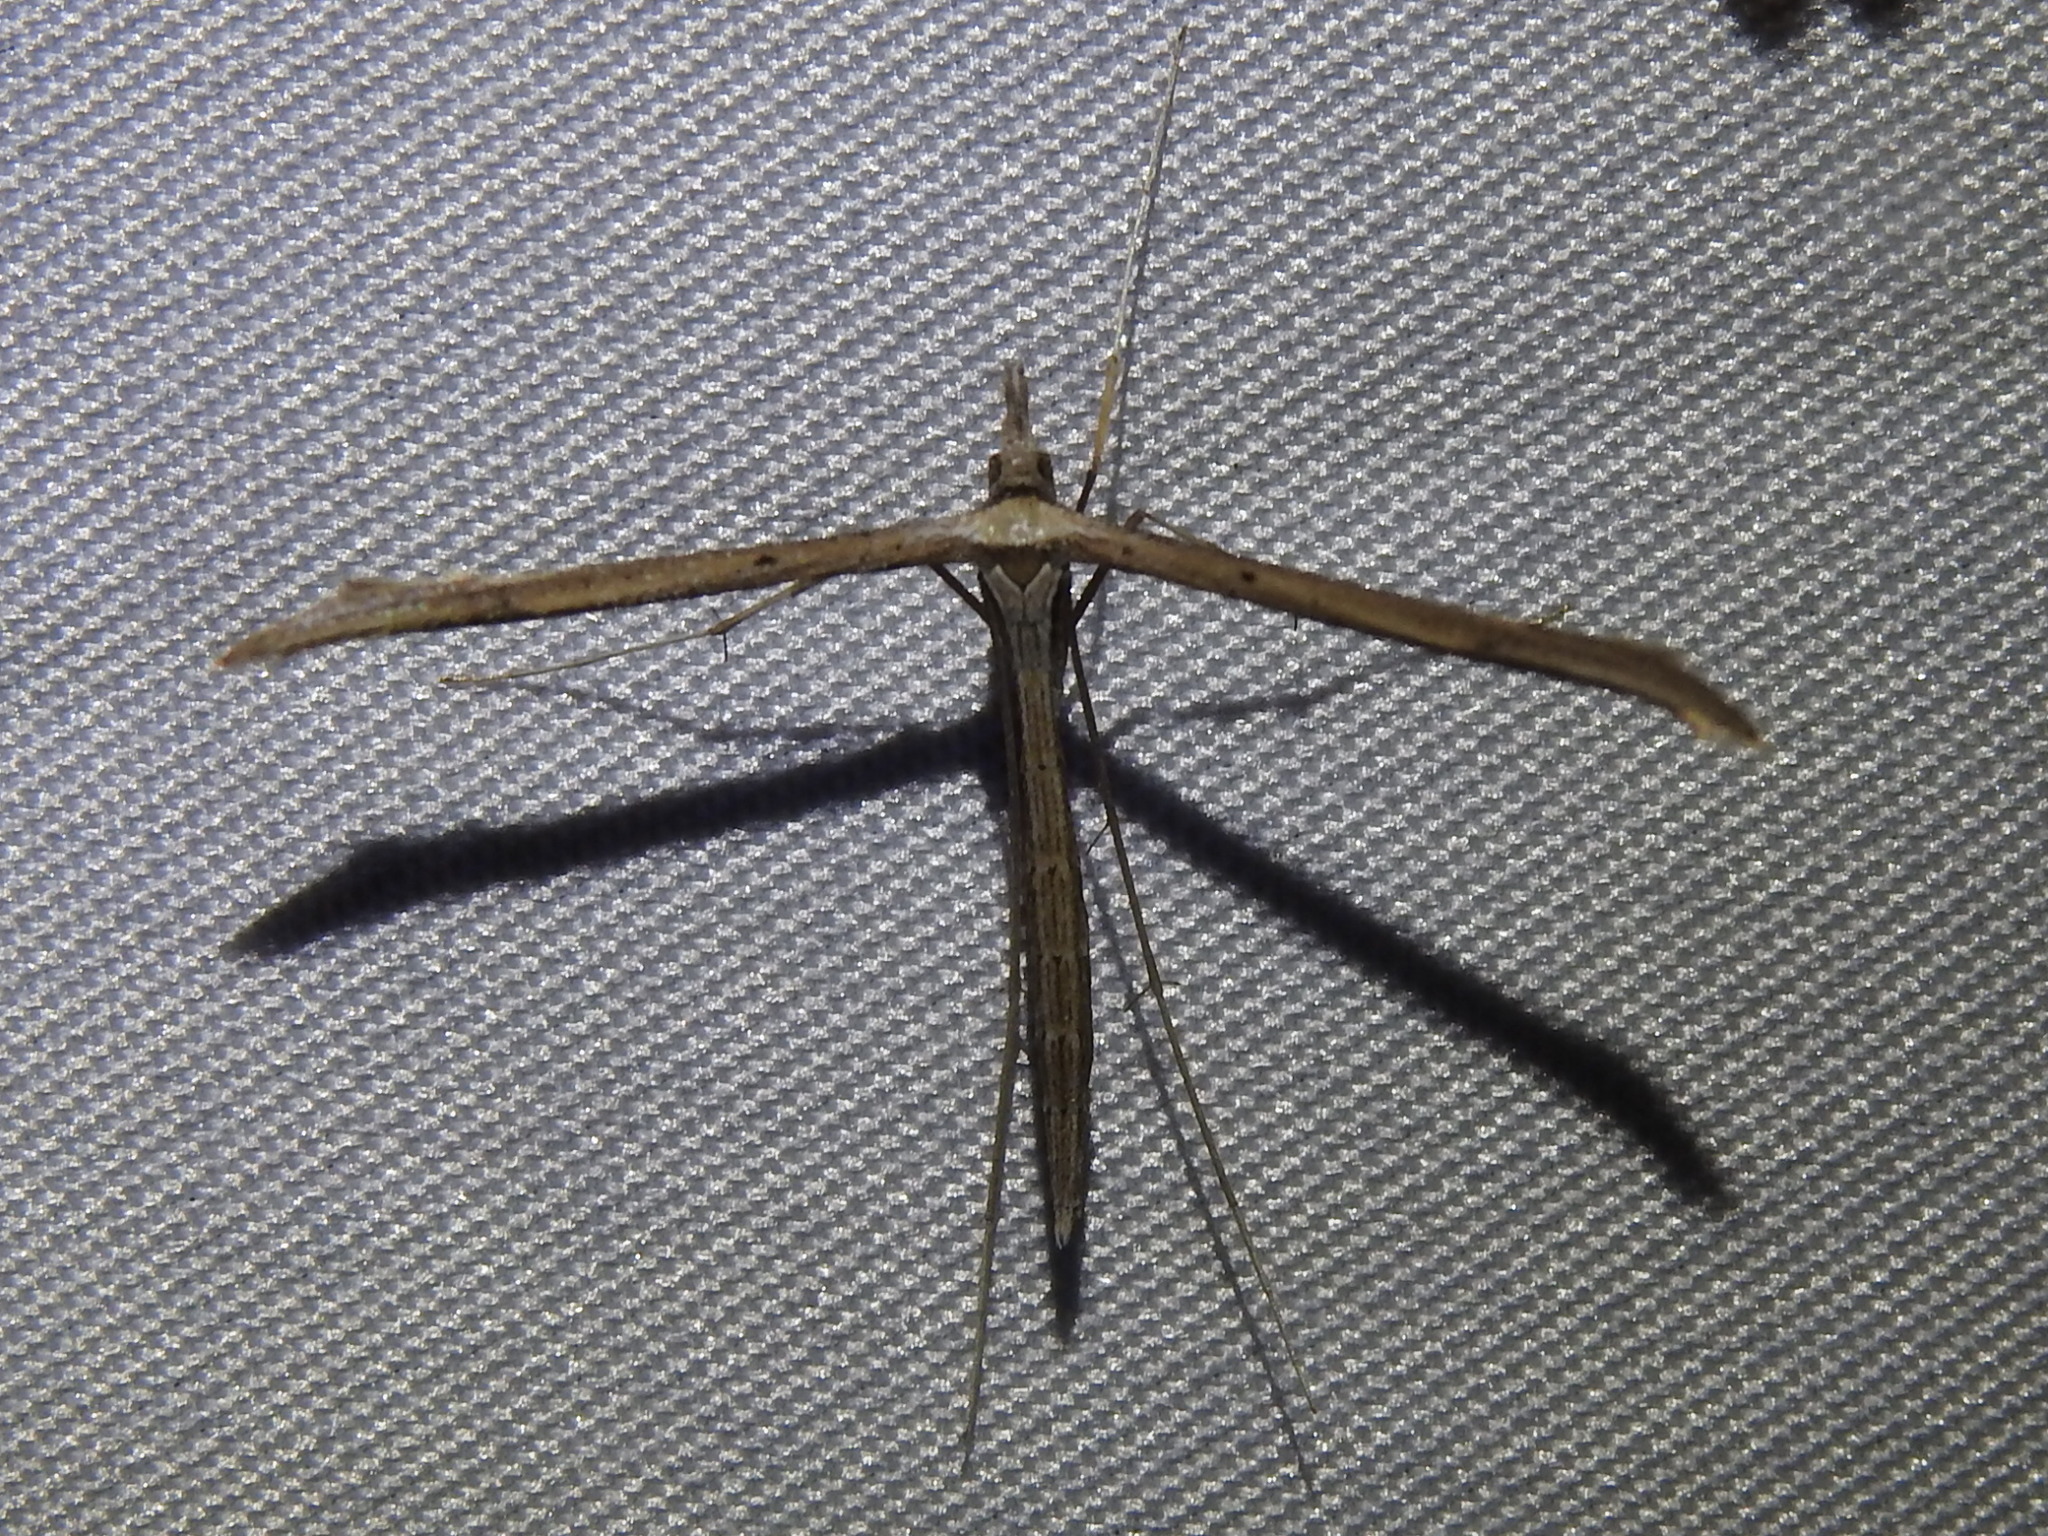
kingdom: Animalia
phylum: Arthropoda
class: Insecta
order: Lepidoptera
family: Pterophoridae
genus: Hellinsia
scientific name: Hellinsia longifrons
